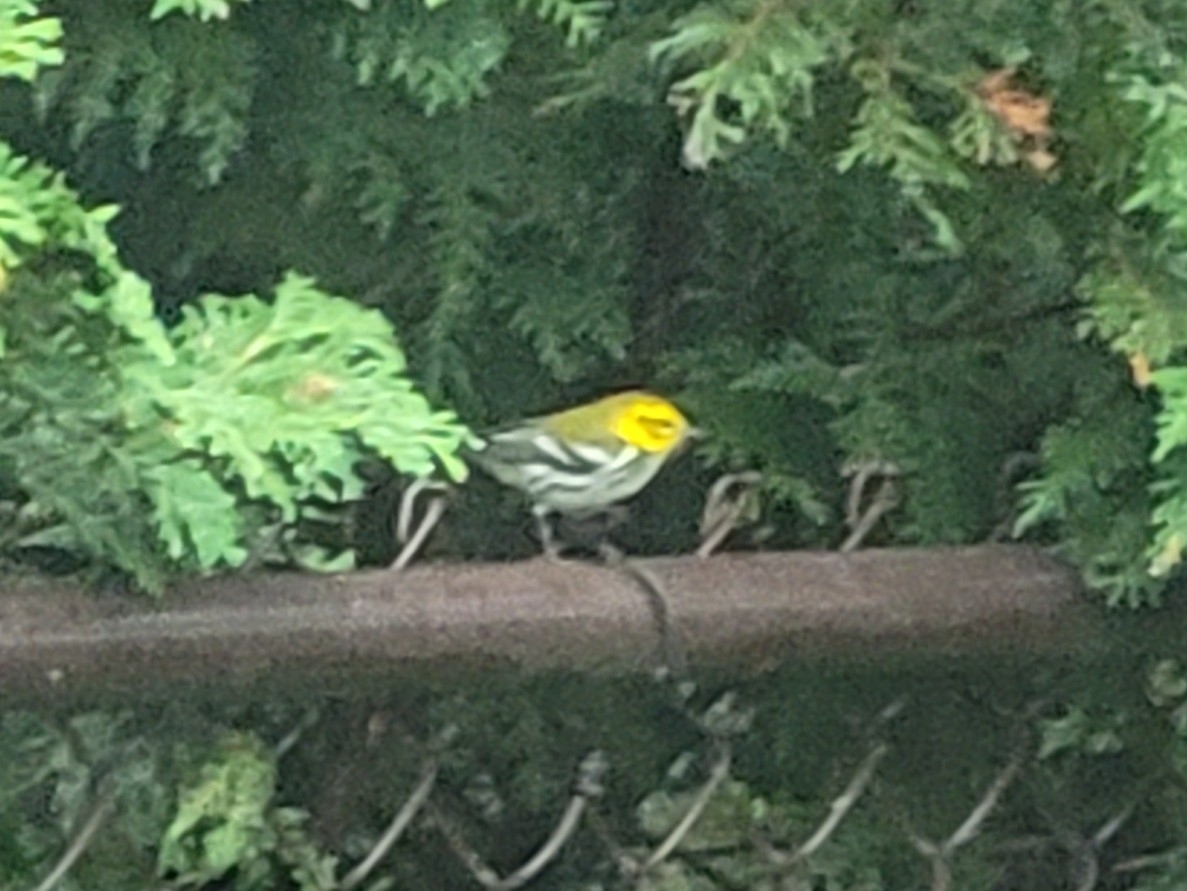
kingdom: Animalia
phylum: Chordata
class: Aves
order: Passeriformes
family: Parulidae
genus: Setophaga
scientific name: Setophaga virens
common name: Black-throated green warbler
